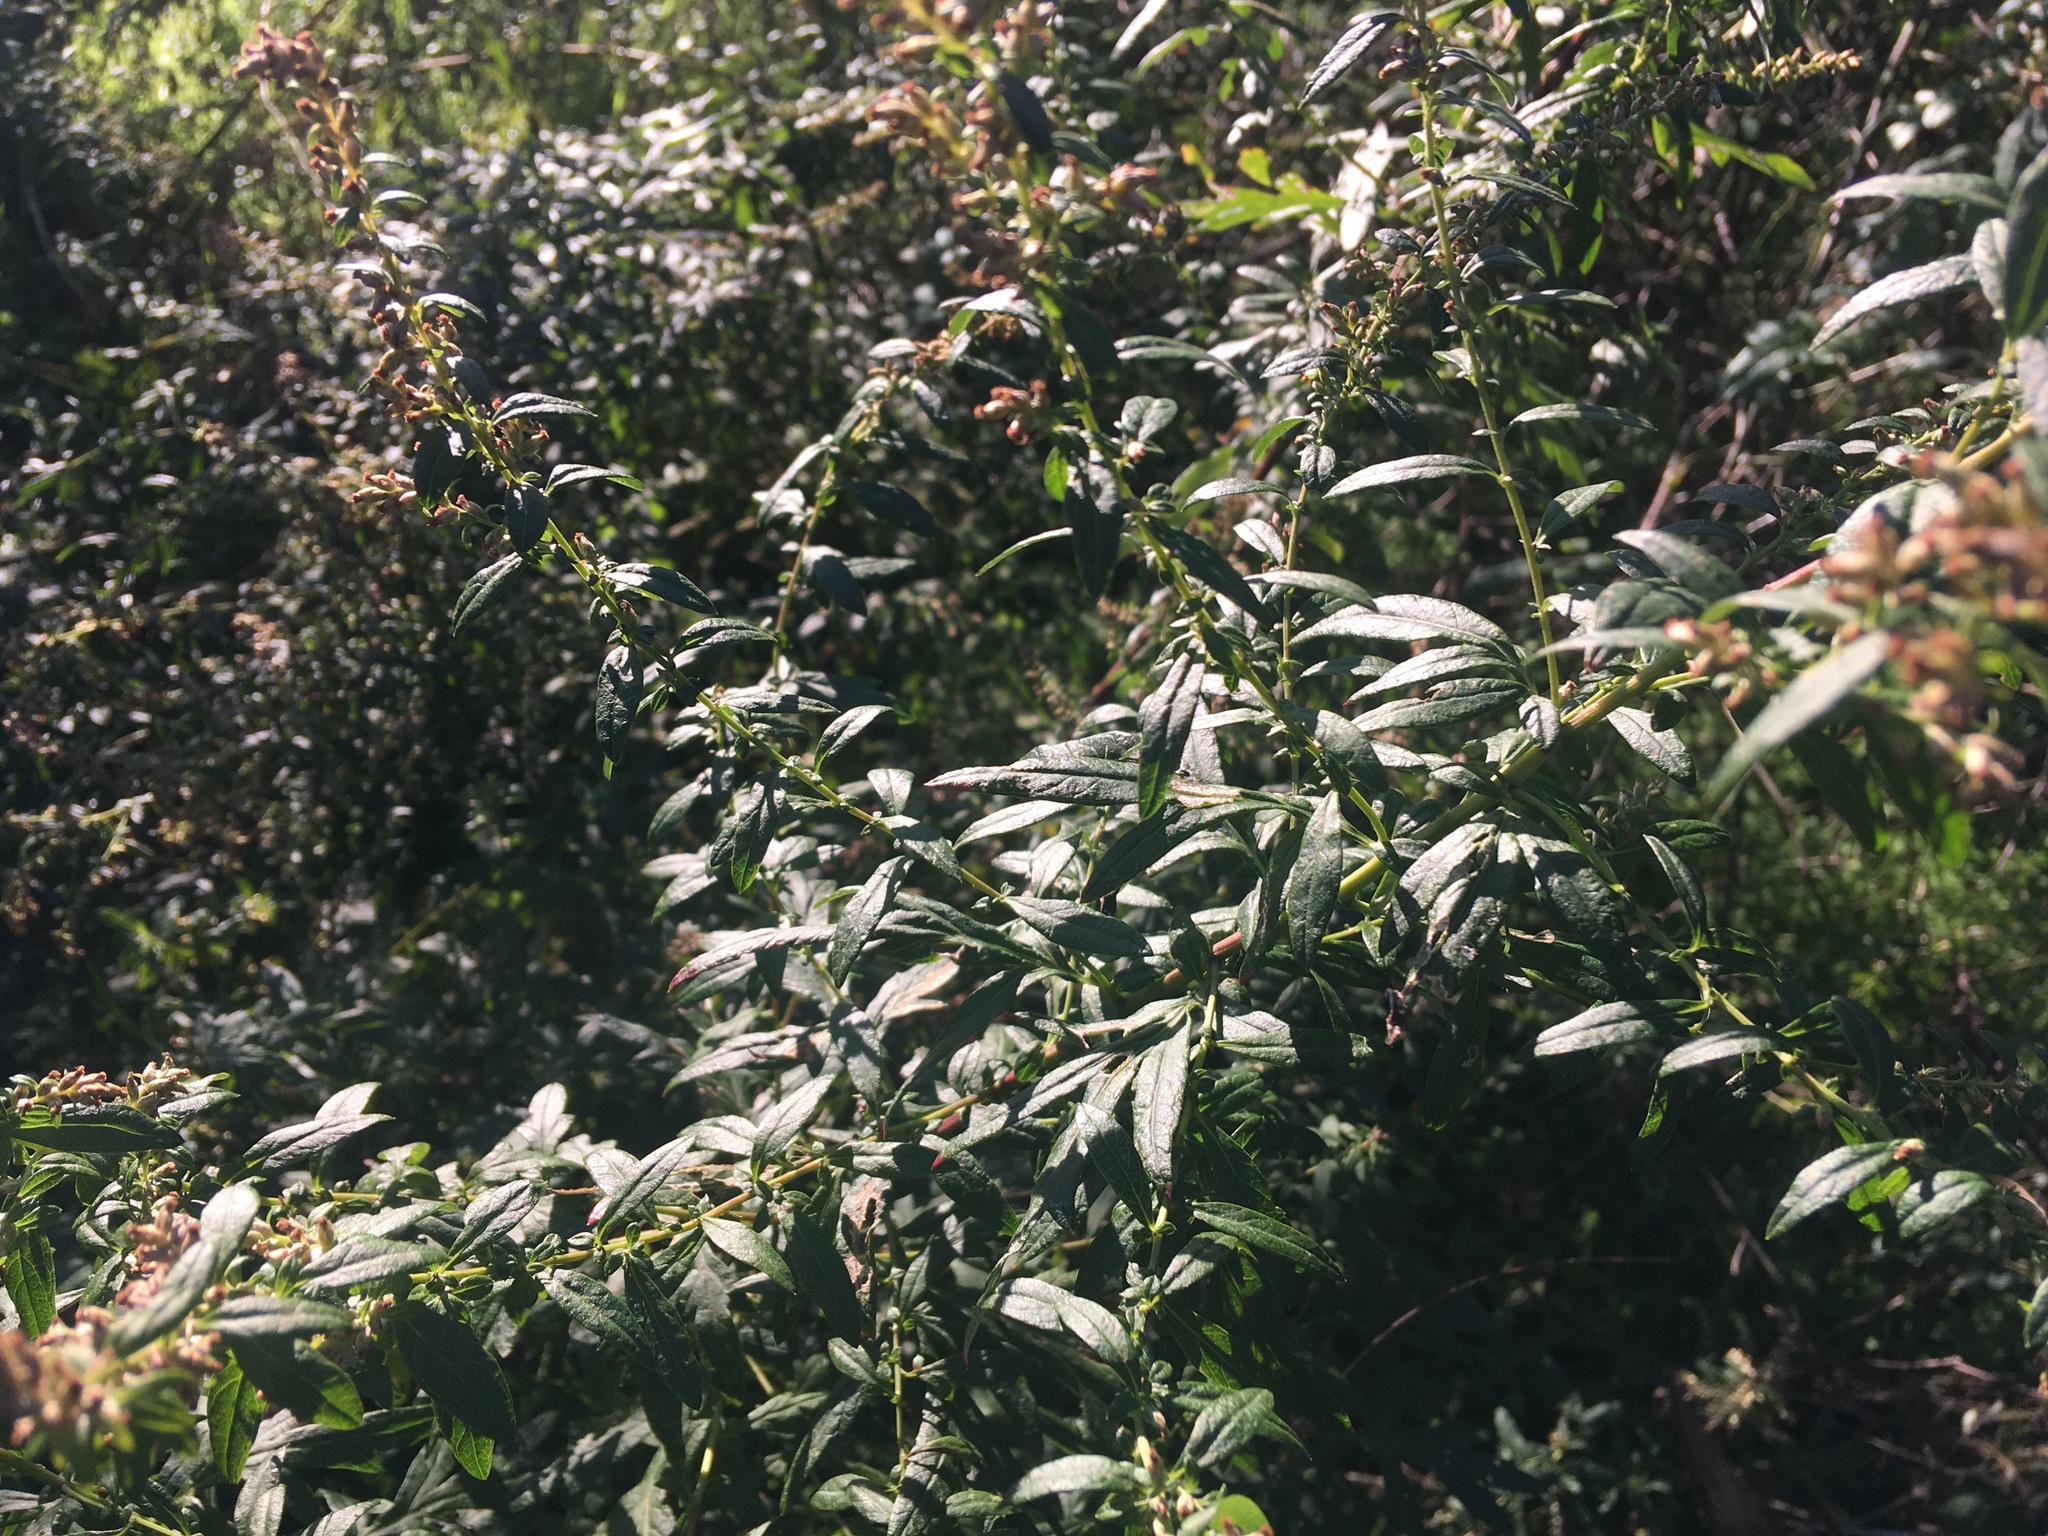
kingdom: Plantae
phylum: Tracheophyta
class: Magnoliopsida
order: Asterales
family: Asteraceae
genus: Artemisia
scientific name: Artemisia vulgaris
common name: Mugwort
